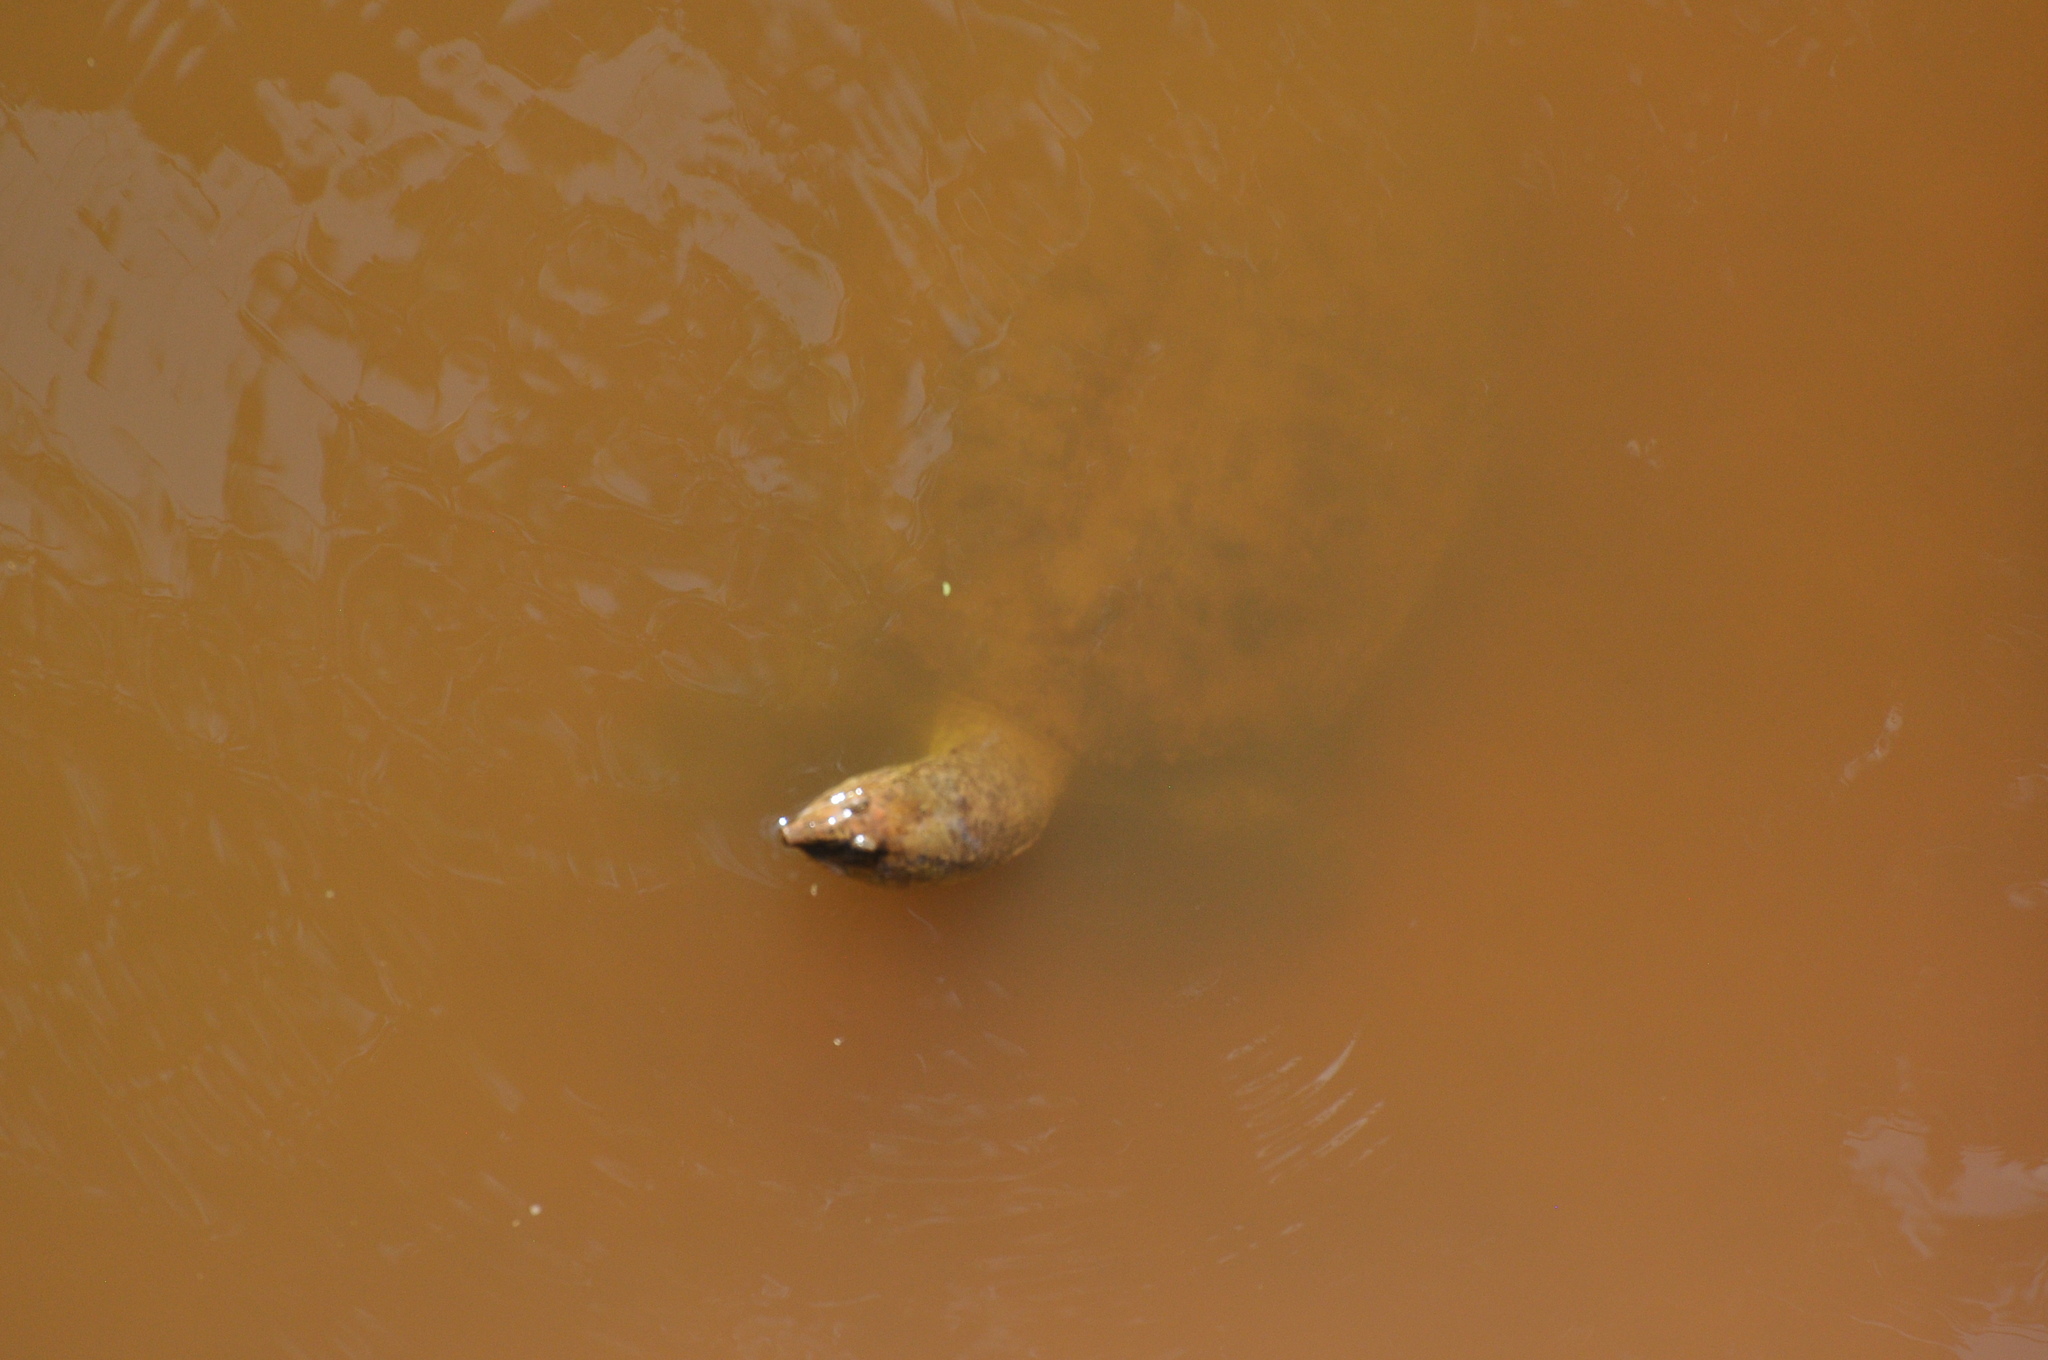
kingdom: Animalia
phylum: Chordata
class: Testudines
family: Trionychidae
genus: Apalone
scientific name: Apalone spinifera
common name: Spiny softshell turtle
